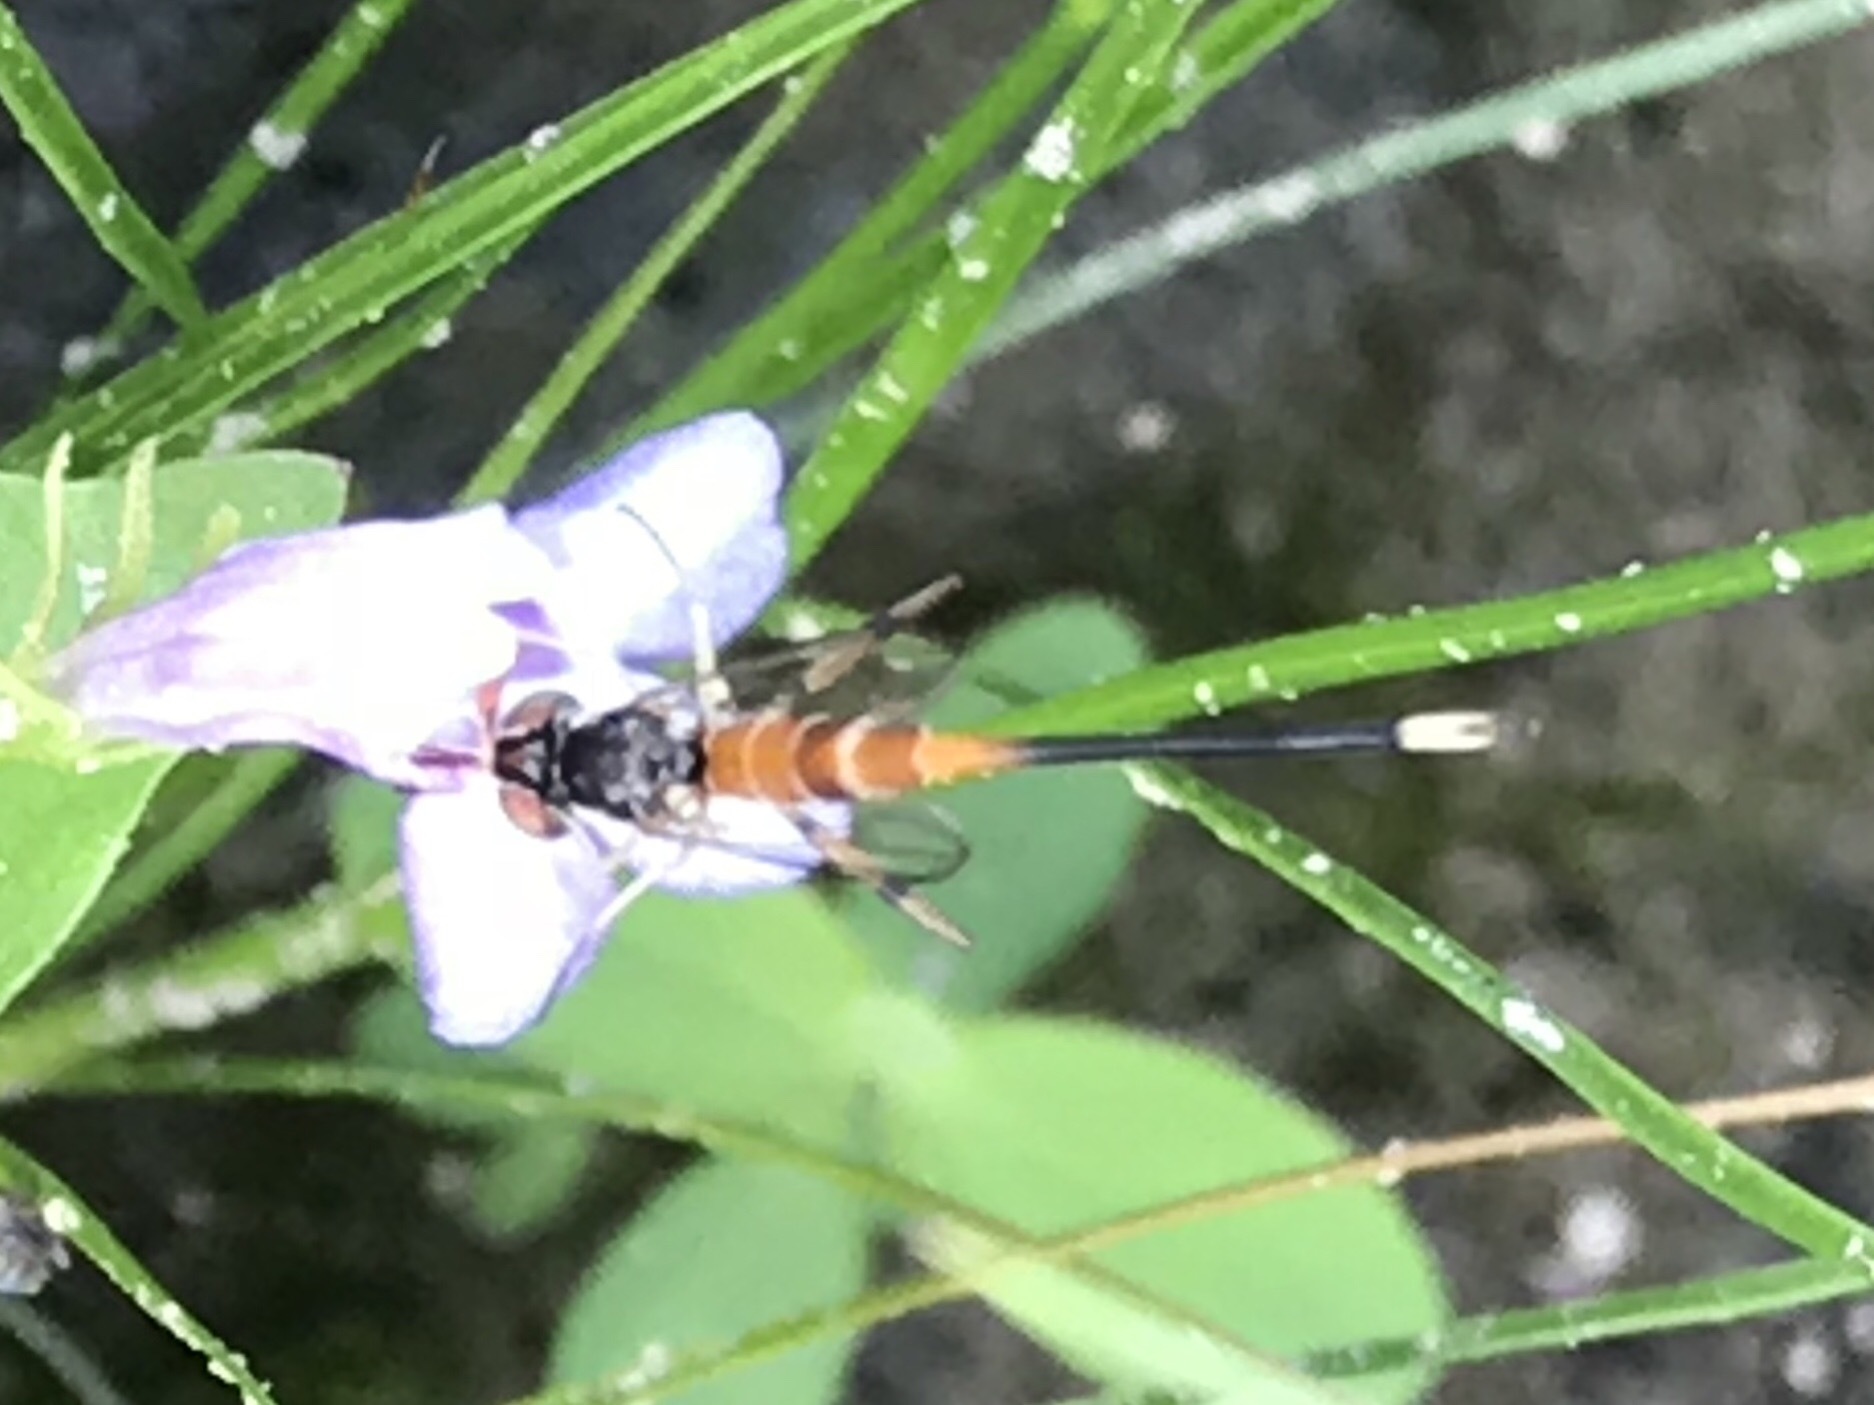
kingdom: Animalia
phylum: Arthropoda
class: Insecta
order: Diptera
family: Conopidae
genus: Stylogaster
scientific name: Stylogaster neglecta
